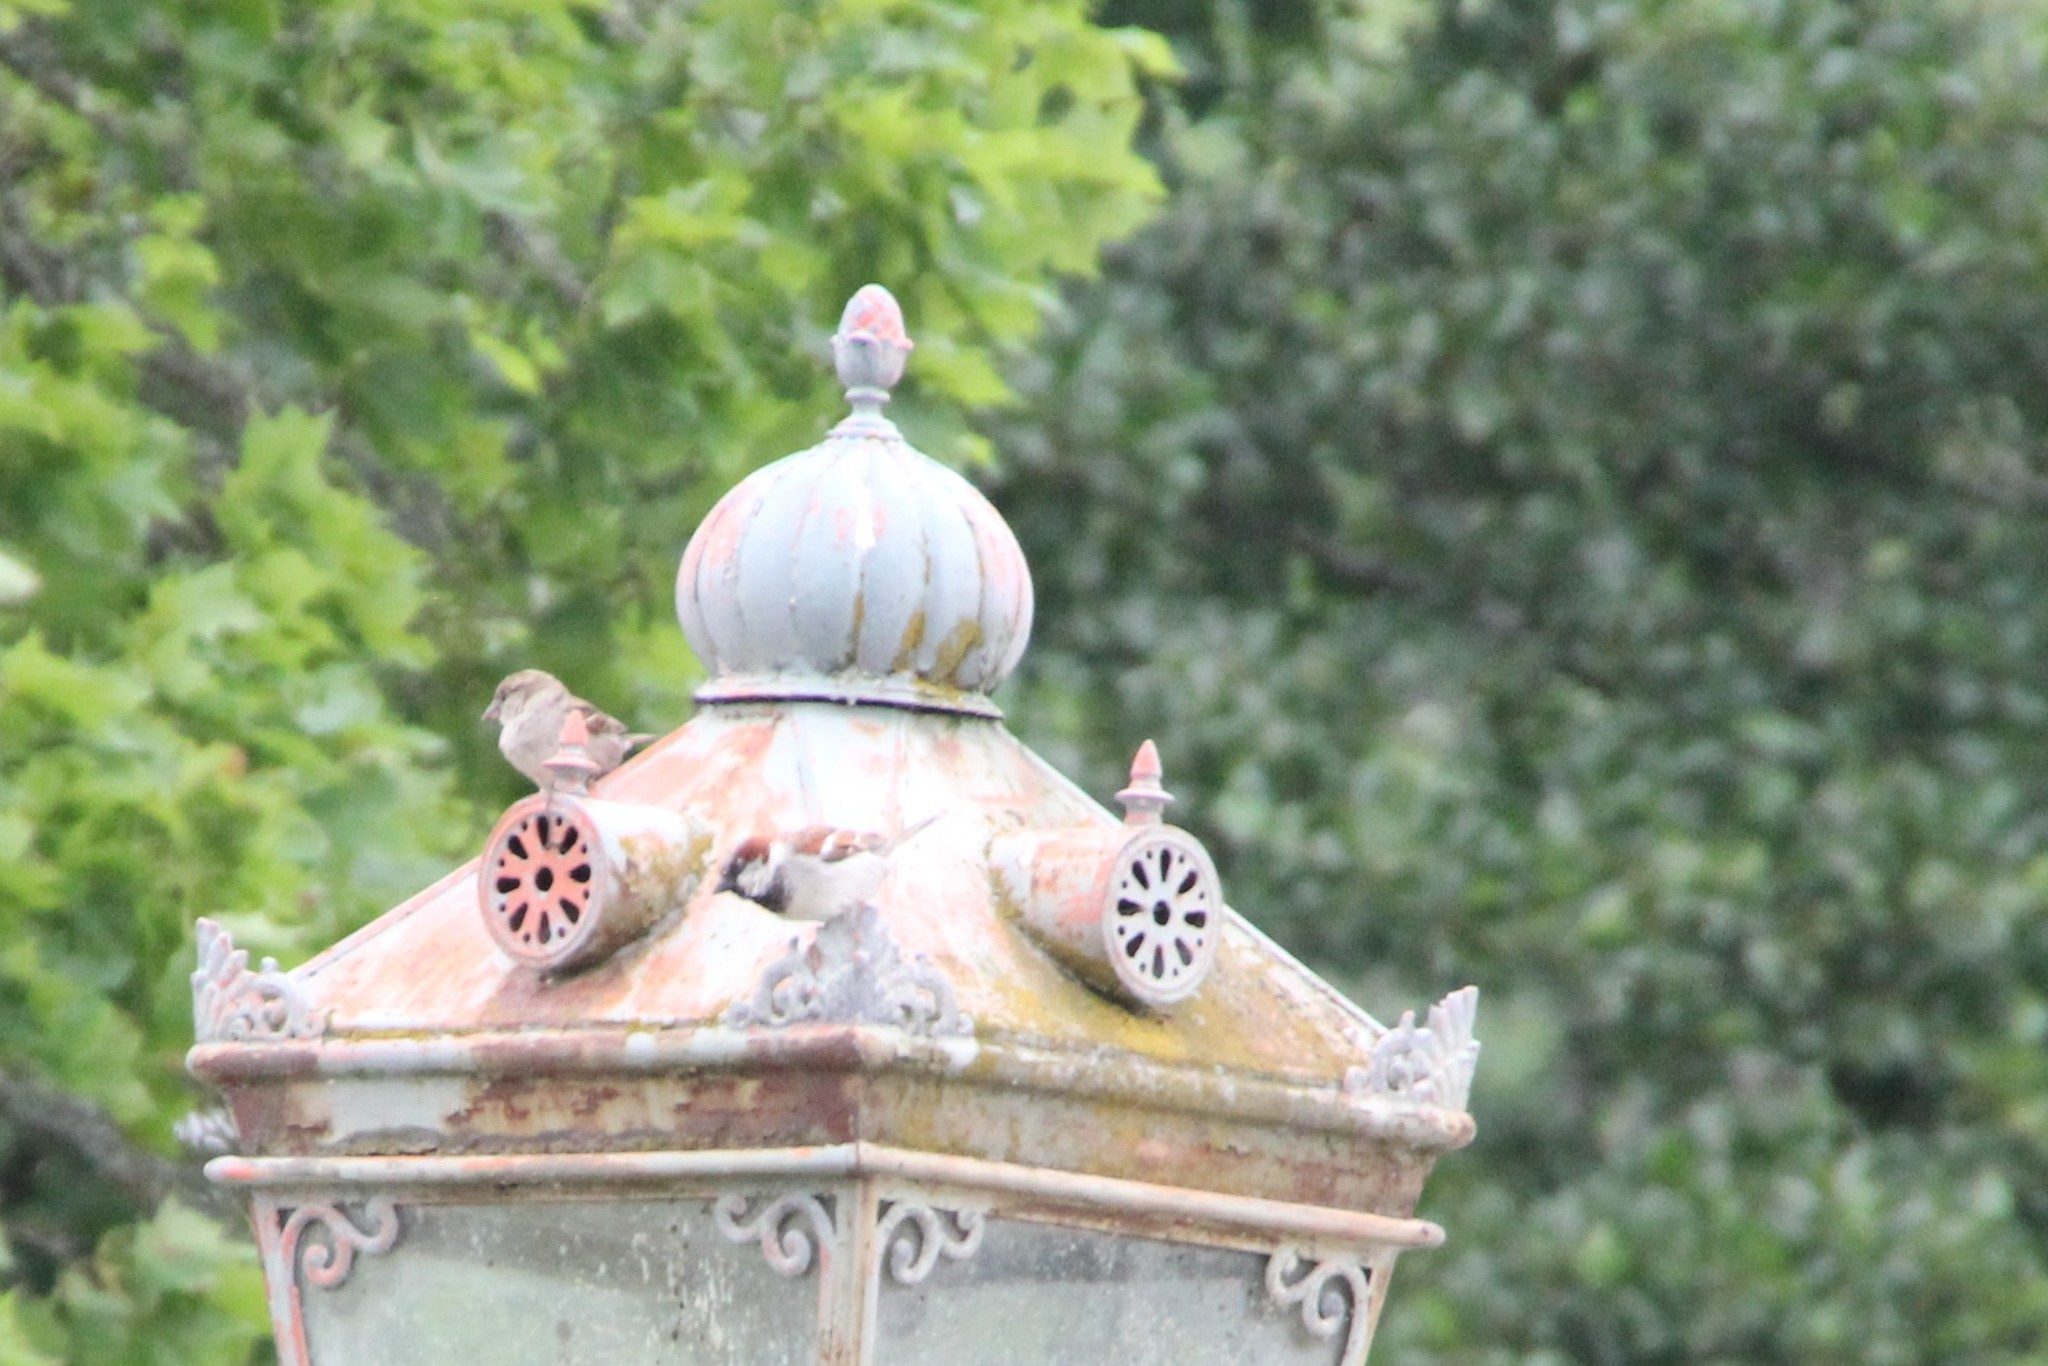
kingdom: Animalia
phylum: Chordata
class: Aves
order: Passeriformes
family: Passeridae
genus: Passer
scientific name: Passer domesticus
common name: House sparrow
